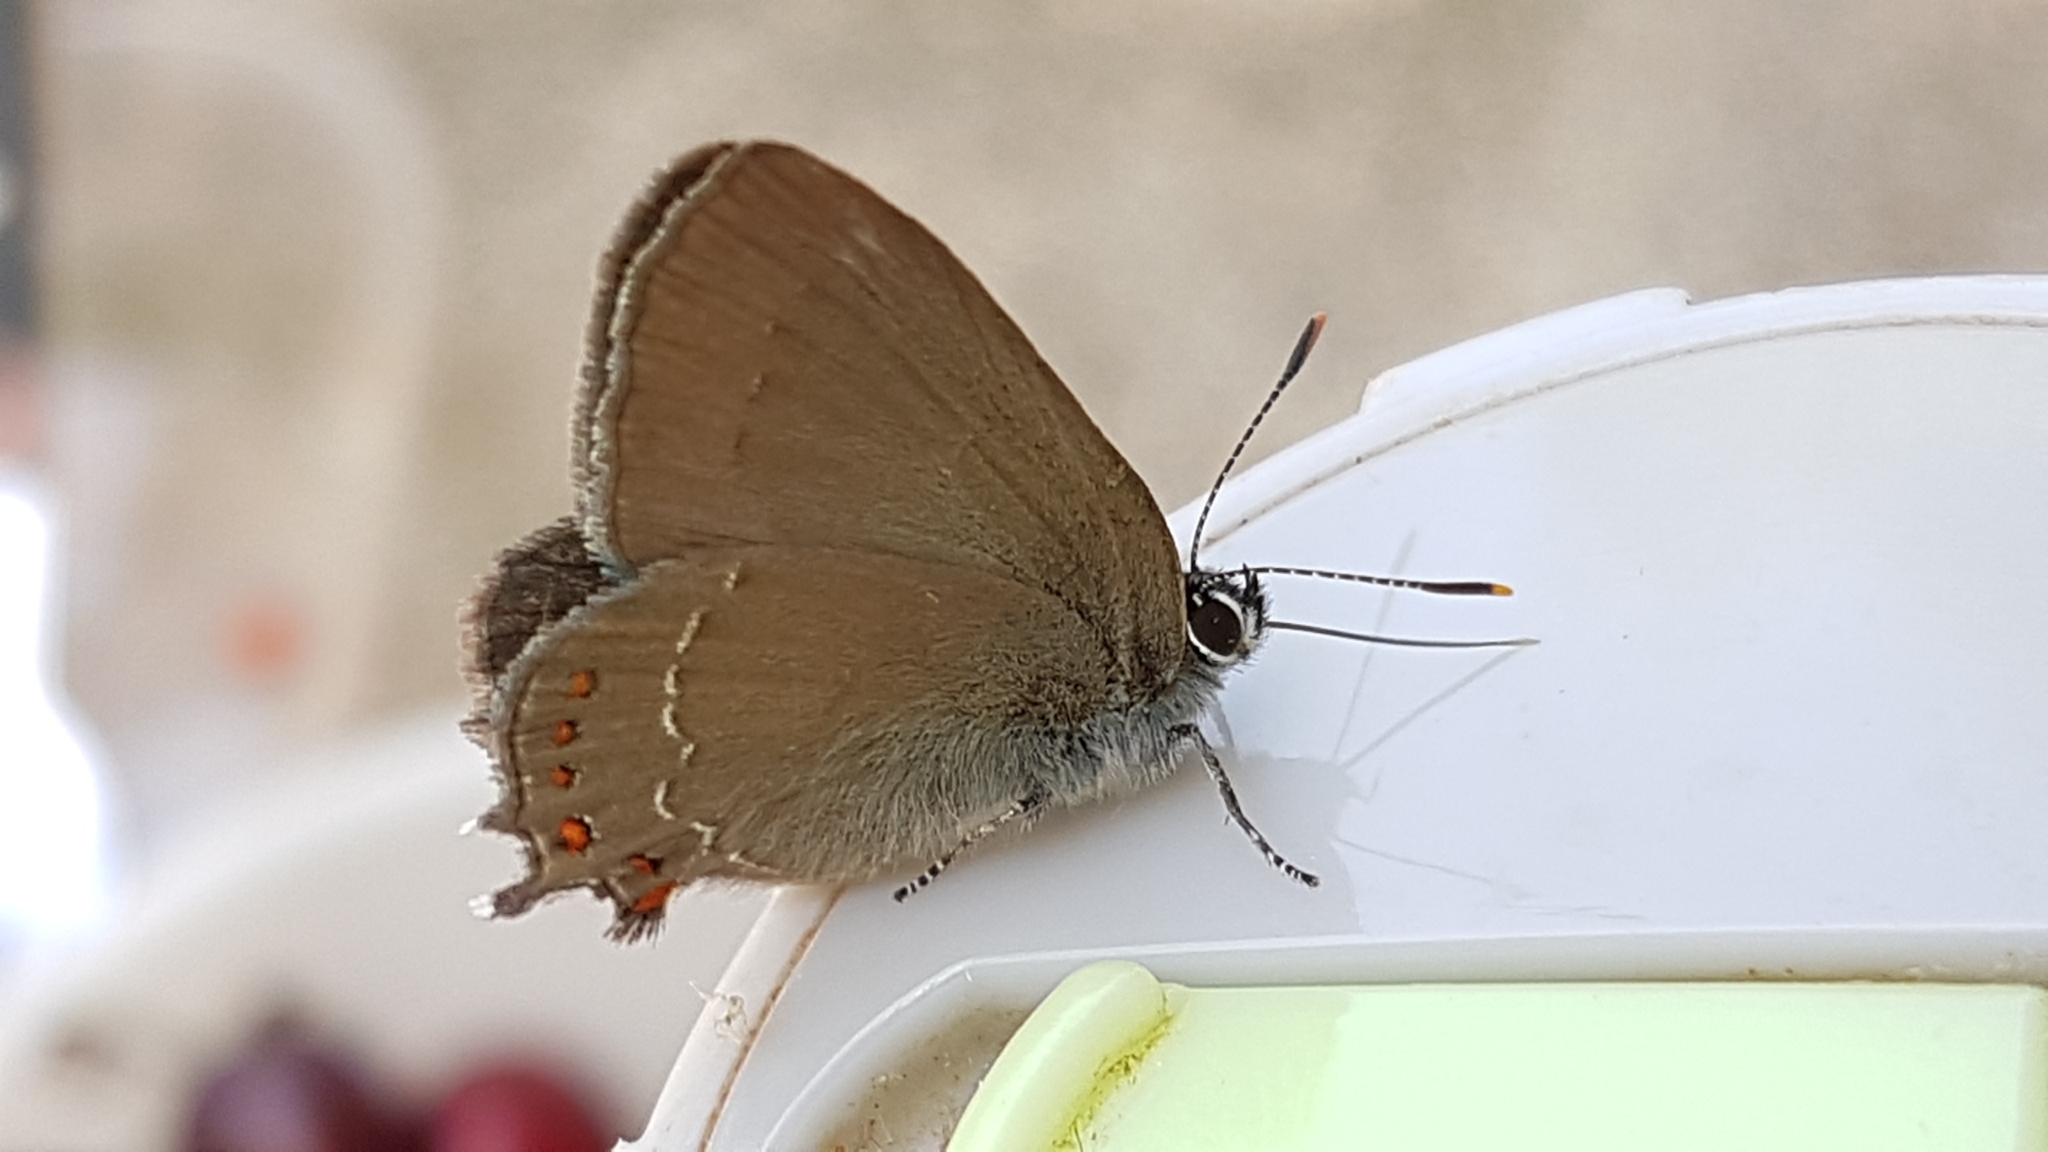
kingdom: Animalia
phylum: Arthropoda
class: Insecta
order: Lepidoptera
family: Lycaenidae
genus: Fixsenia
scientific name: Fixsenia esculi
